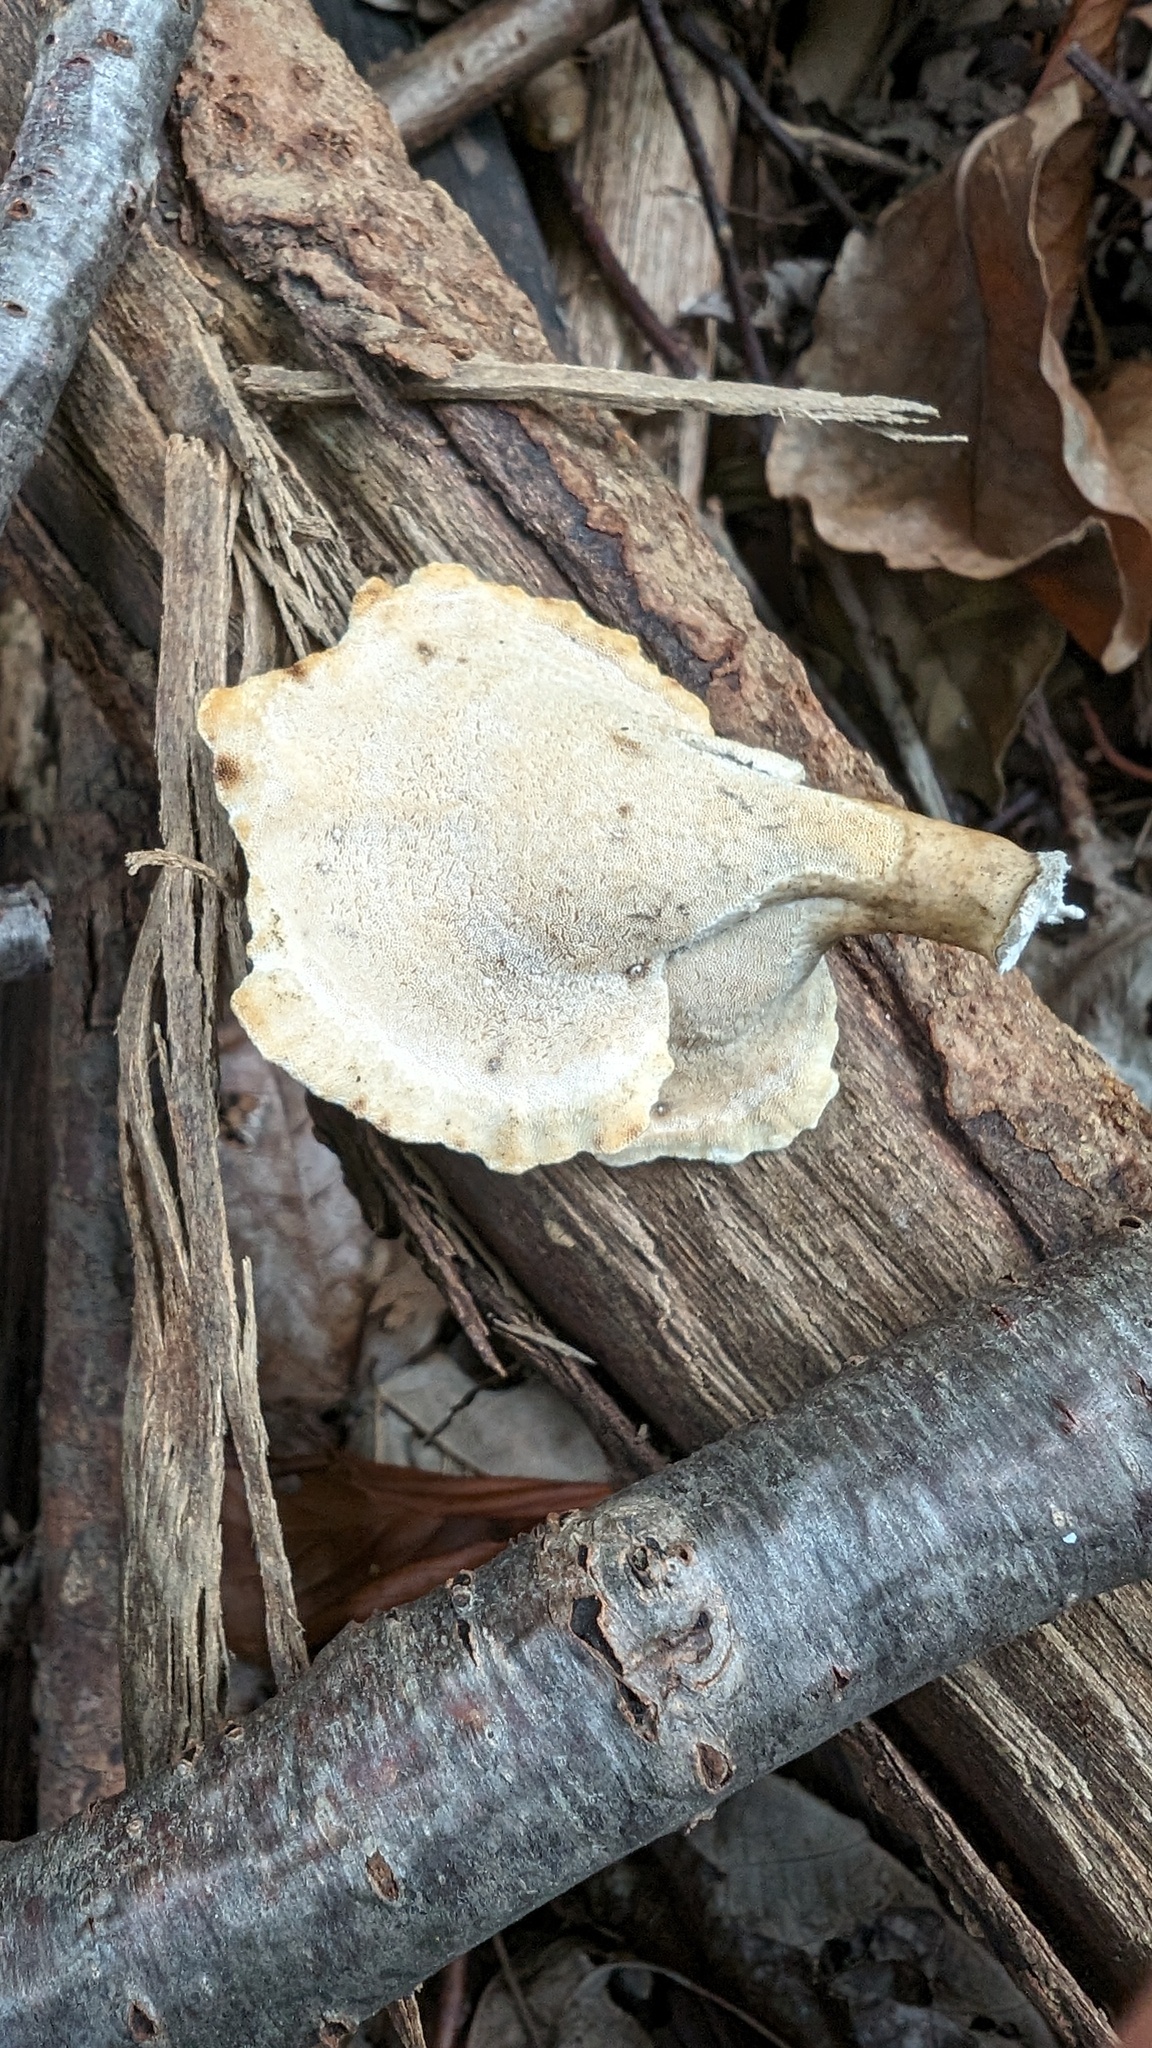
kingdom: Fungi
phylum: Basidiomycota
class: Agaricomycetes
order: Polyporales
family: Polyporaceae
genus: Trametes
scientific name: Trametes vernicipes
